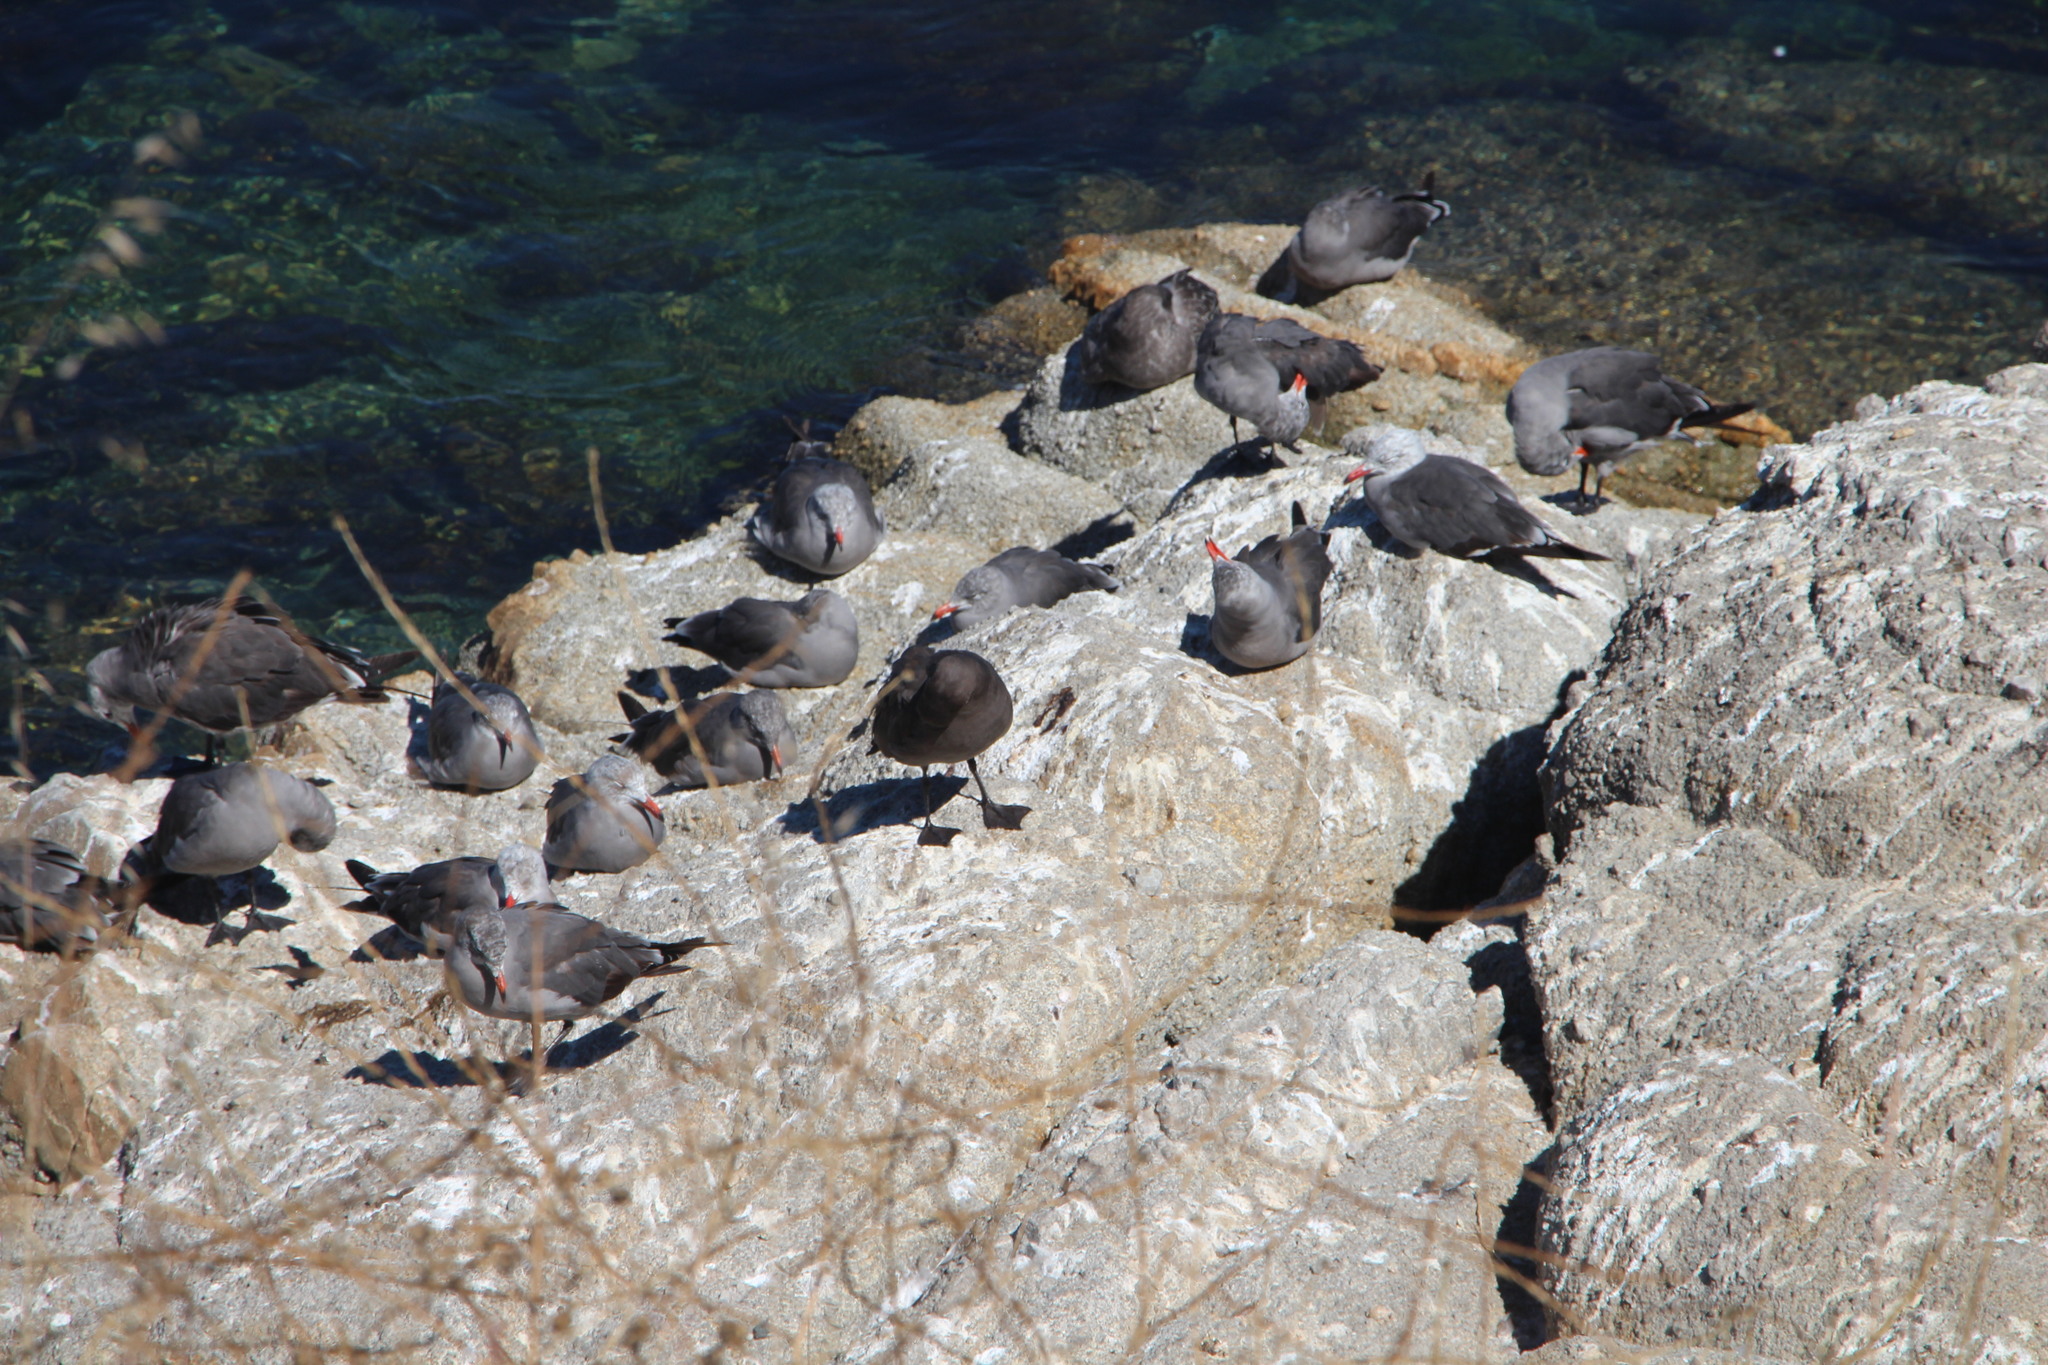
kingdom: Animalia
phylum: Chordata
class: Aves
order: Charadriiformes
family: Laridae
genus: Larus
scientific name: Larus heermanni
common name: Heermann's gull
